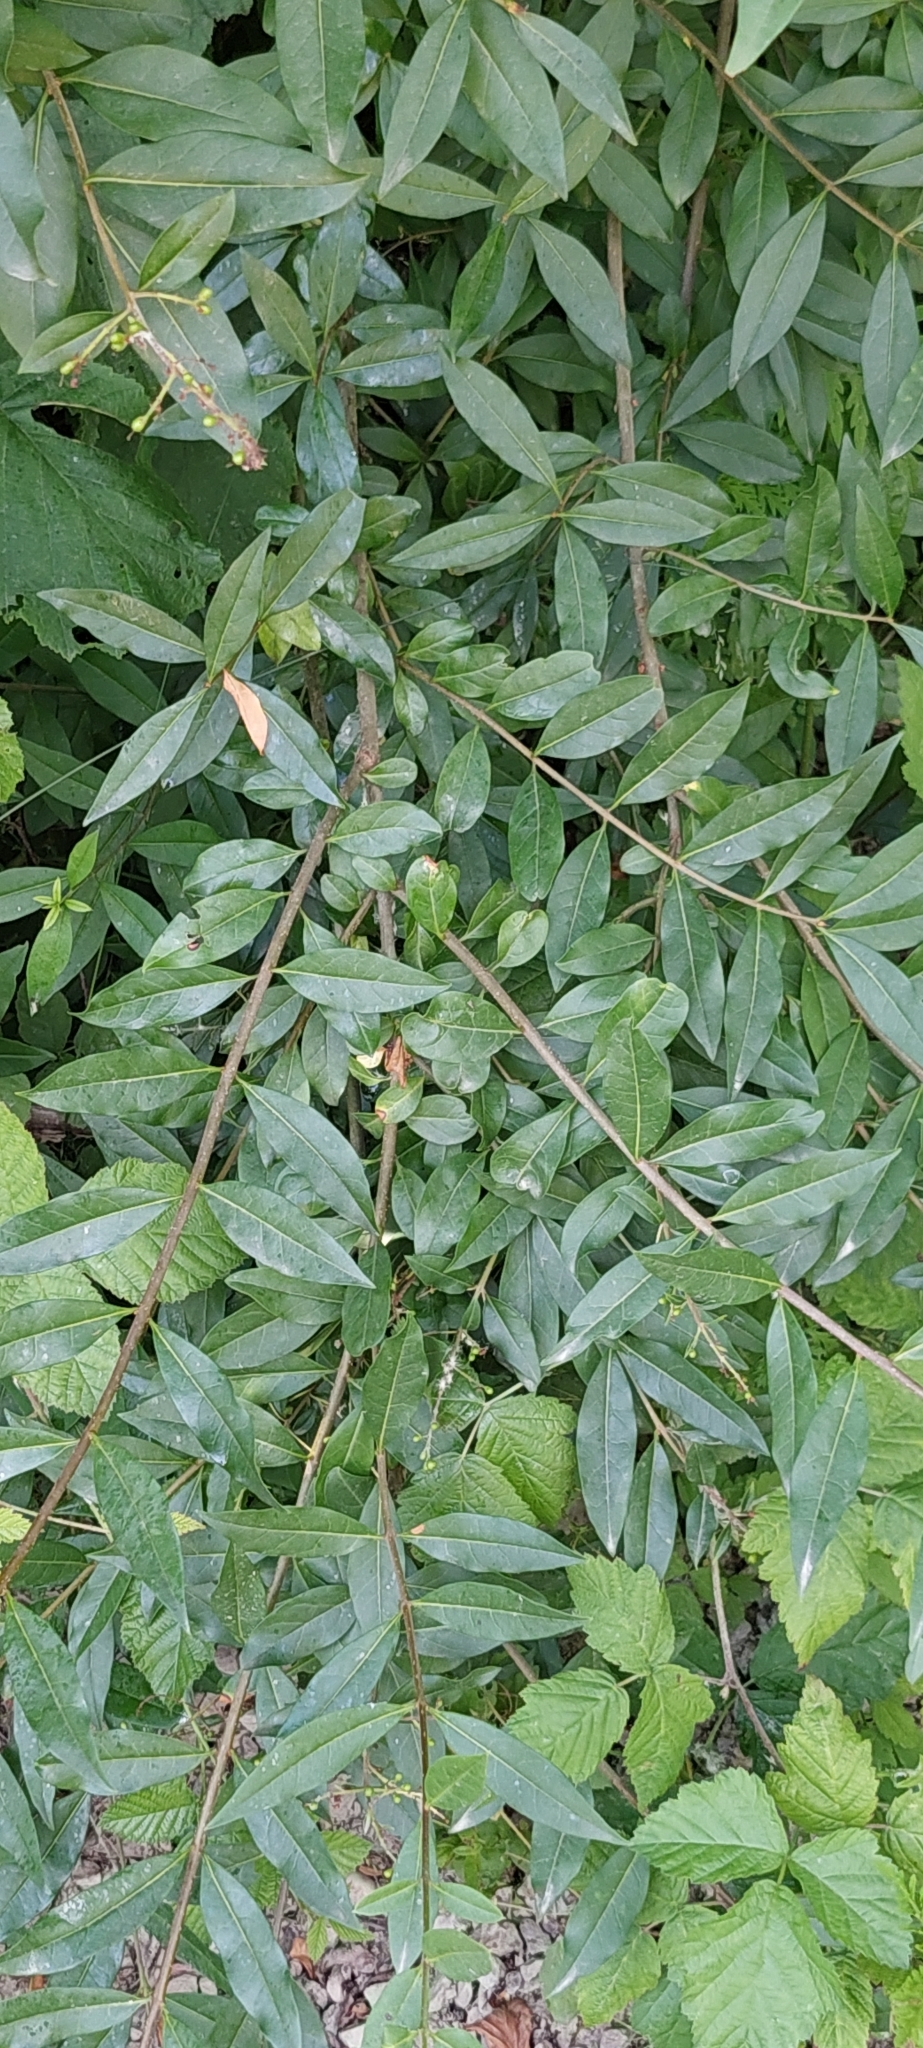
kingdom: Plantae
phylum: Tracheophyta
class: Magnoliopsida
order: Lamiales
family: Oleaceae
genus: Ligustrum
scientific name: Ligustrum vulgare
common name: Wild privet
